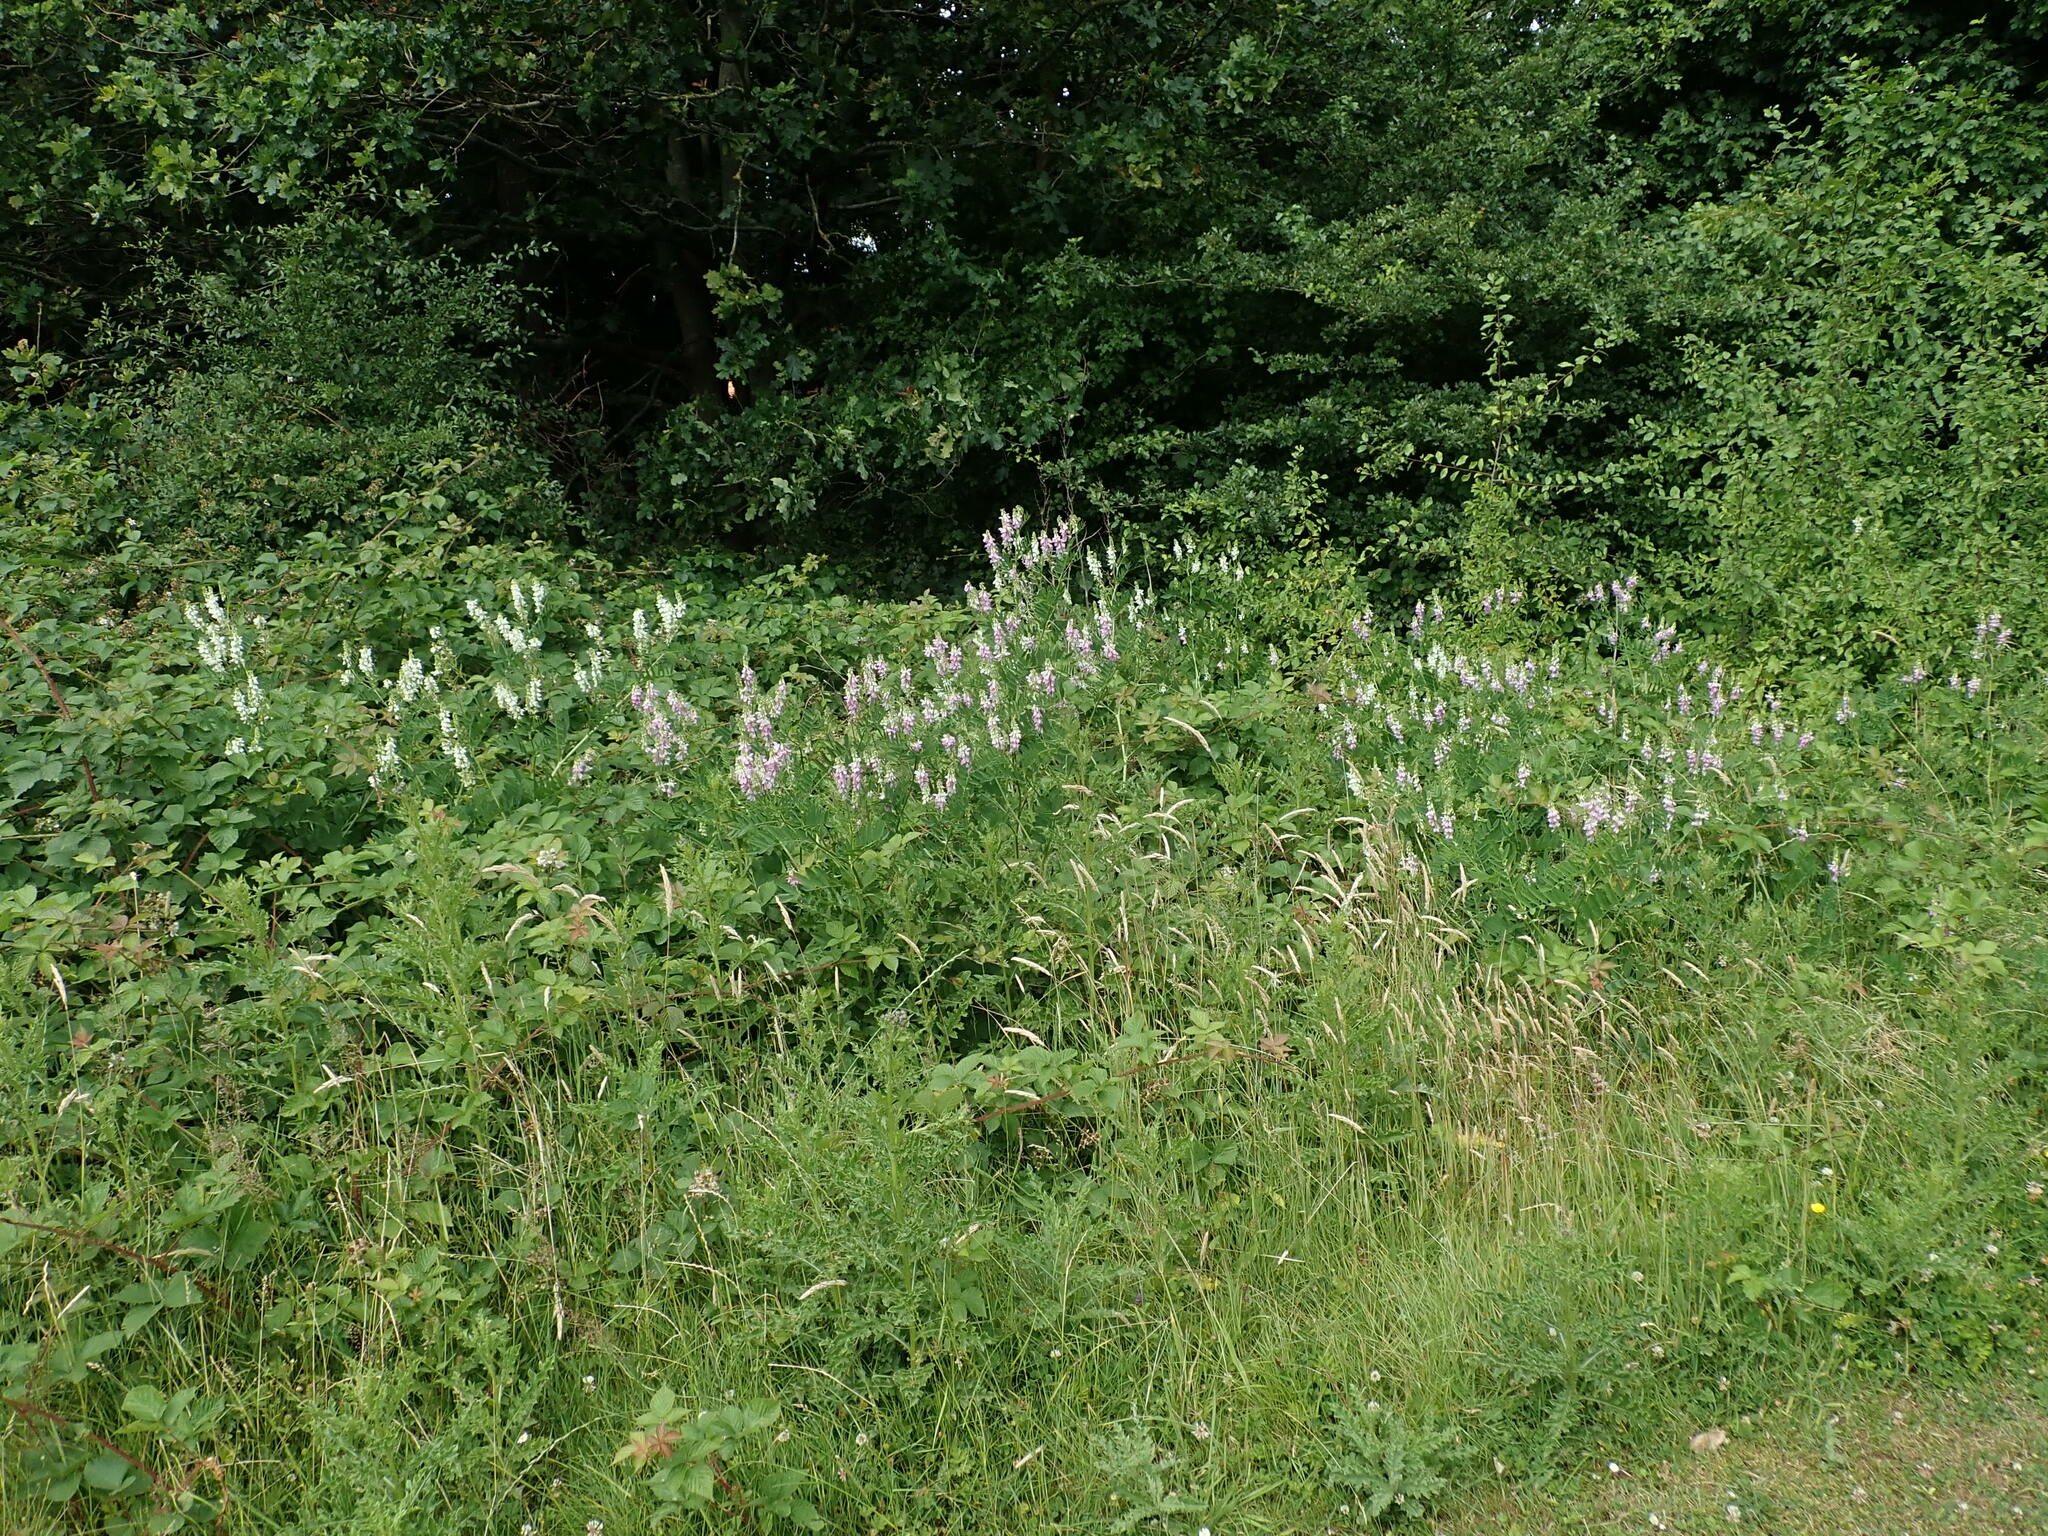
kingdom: Plantae
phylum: Tracheophyta
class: Magnoliopsida
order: Fabales
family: Fabaceae
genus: Galega
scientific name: Galega officinalis
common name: Goat's-rue
